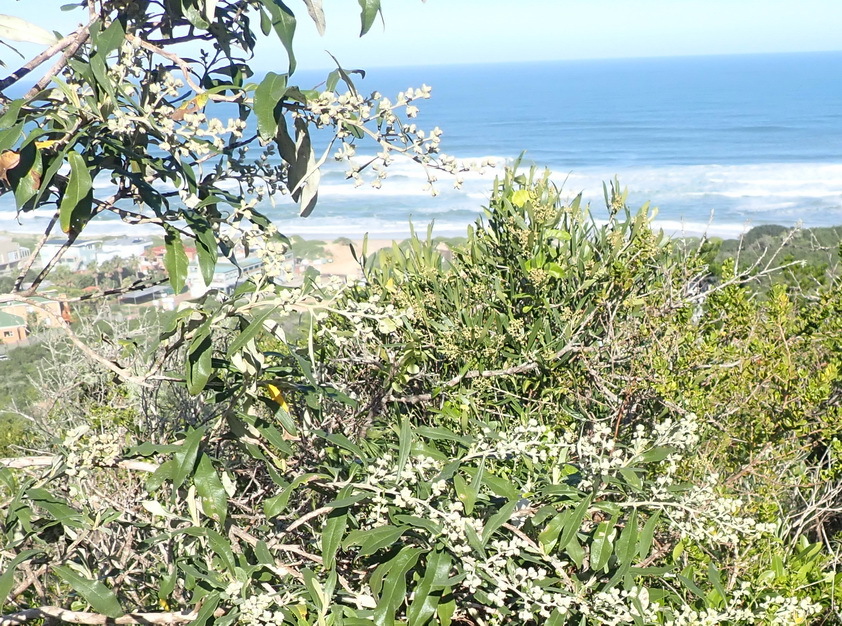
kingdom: Plantae
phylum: Tracheophyta
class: Magnoliopsida
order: Asterales
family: Asteraceae
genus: Tarchonanthus
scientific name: Tarchonanthus littoralis
